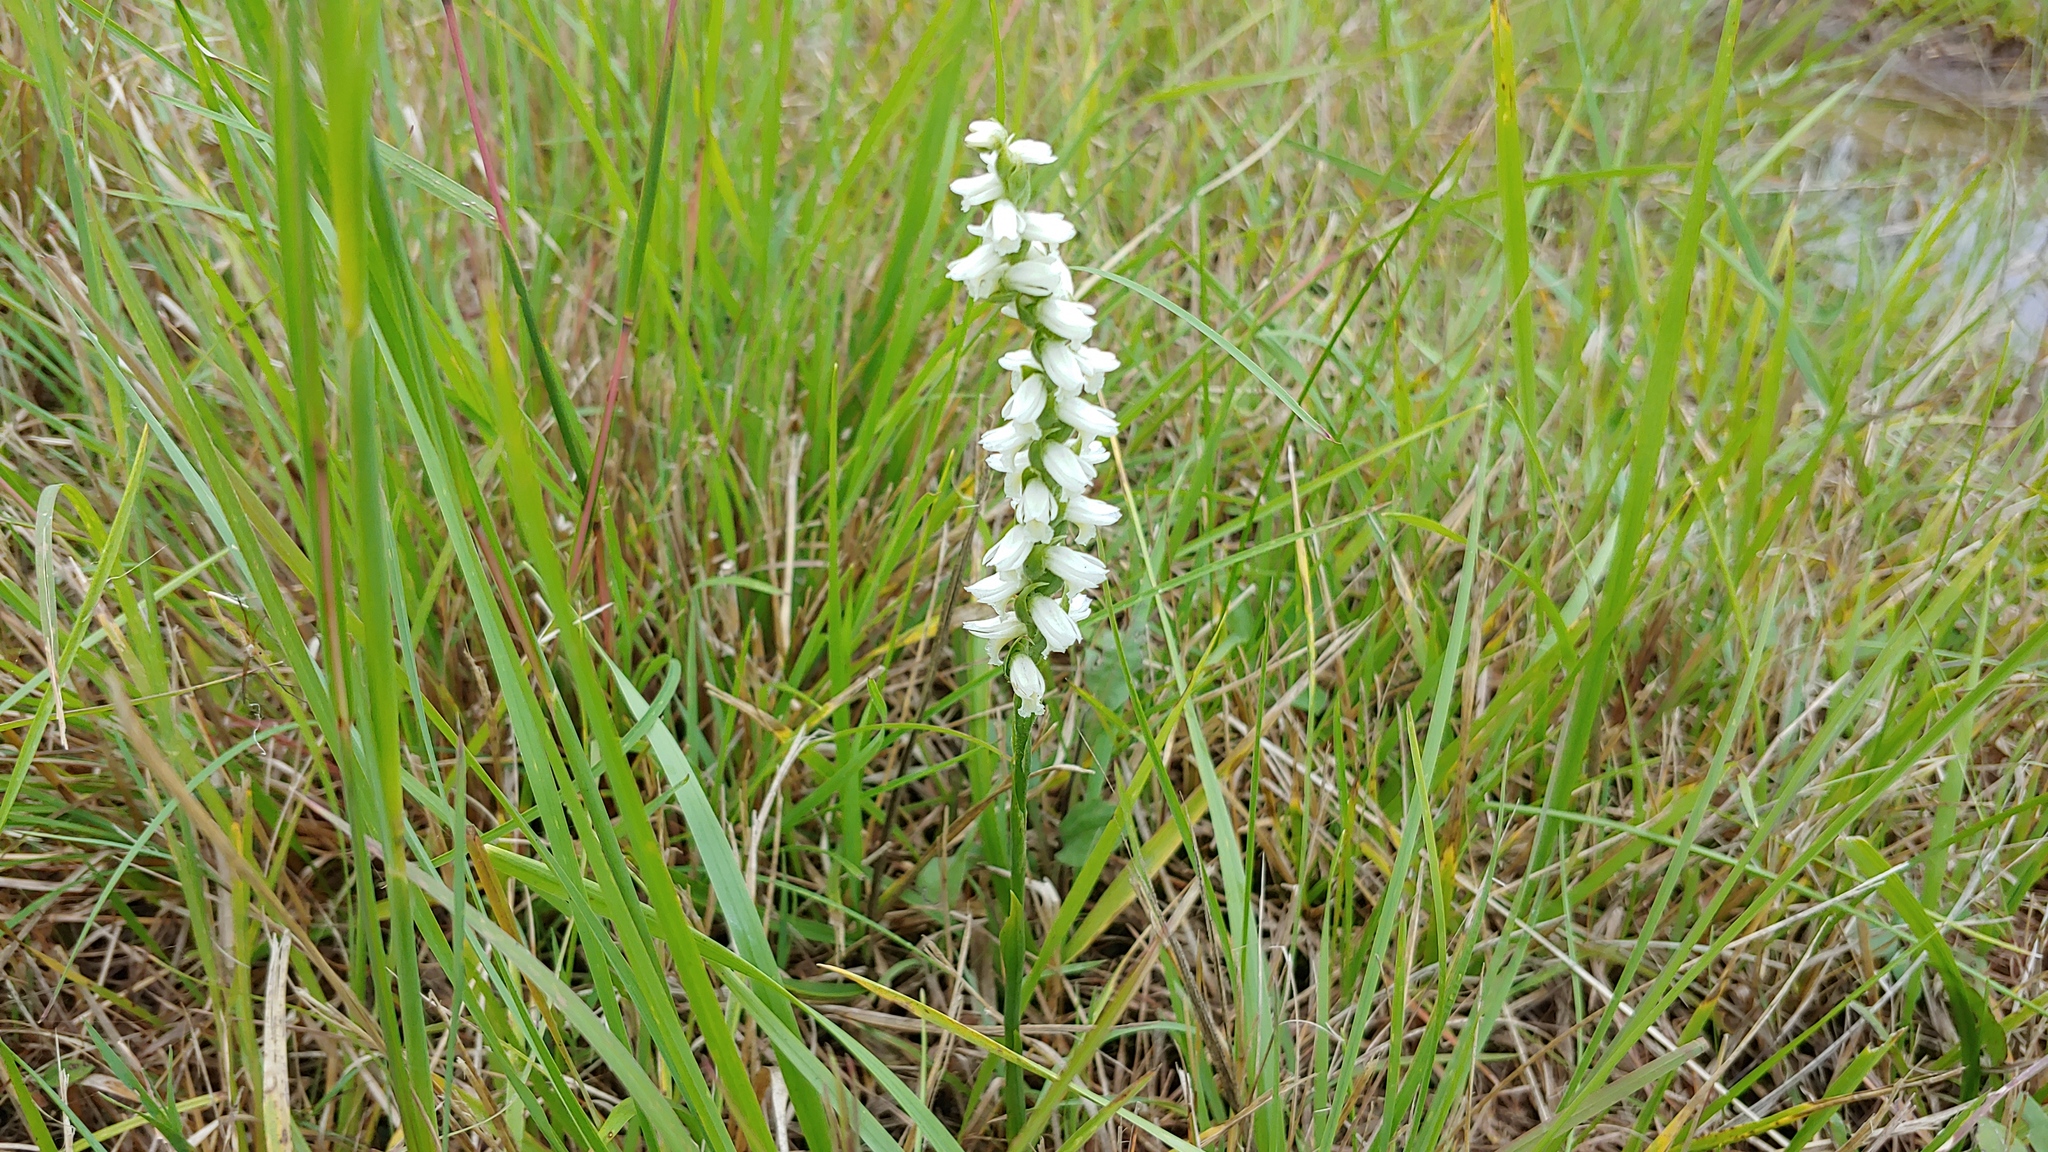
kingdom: Plantae
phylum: Tracheophyta
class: Liliopsida
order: Asparagales
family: Orchidaceae
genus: Spiranthes
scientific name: Spiranthes magnicamporum
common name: Great plains ladies'-tresses
